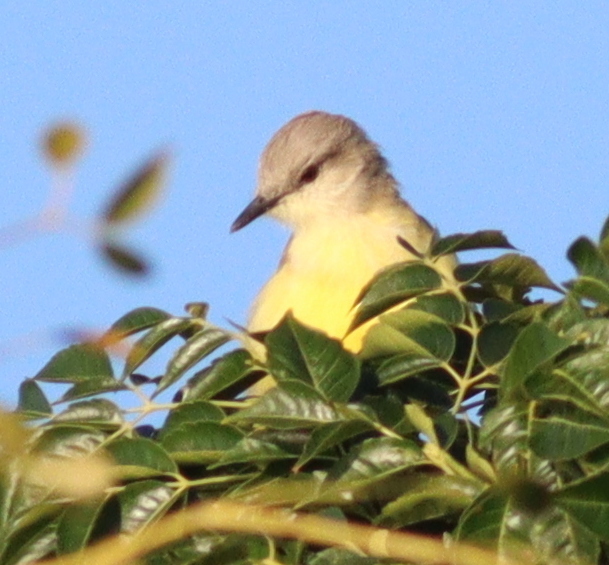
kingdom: Animalia
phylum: Chordata
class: Aves
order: Passeriformes
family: Tyrannidae
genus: Machetornis
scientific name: Machetornis rixosa
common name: Cattle tyrant
